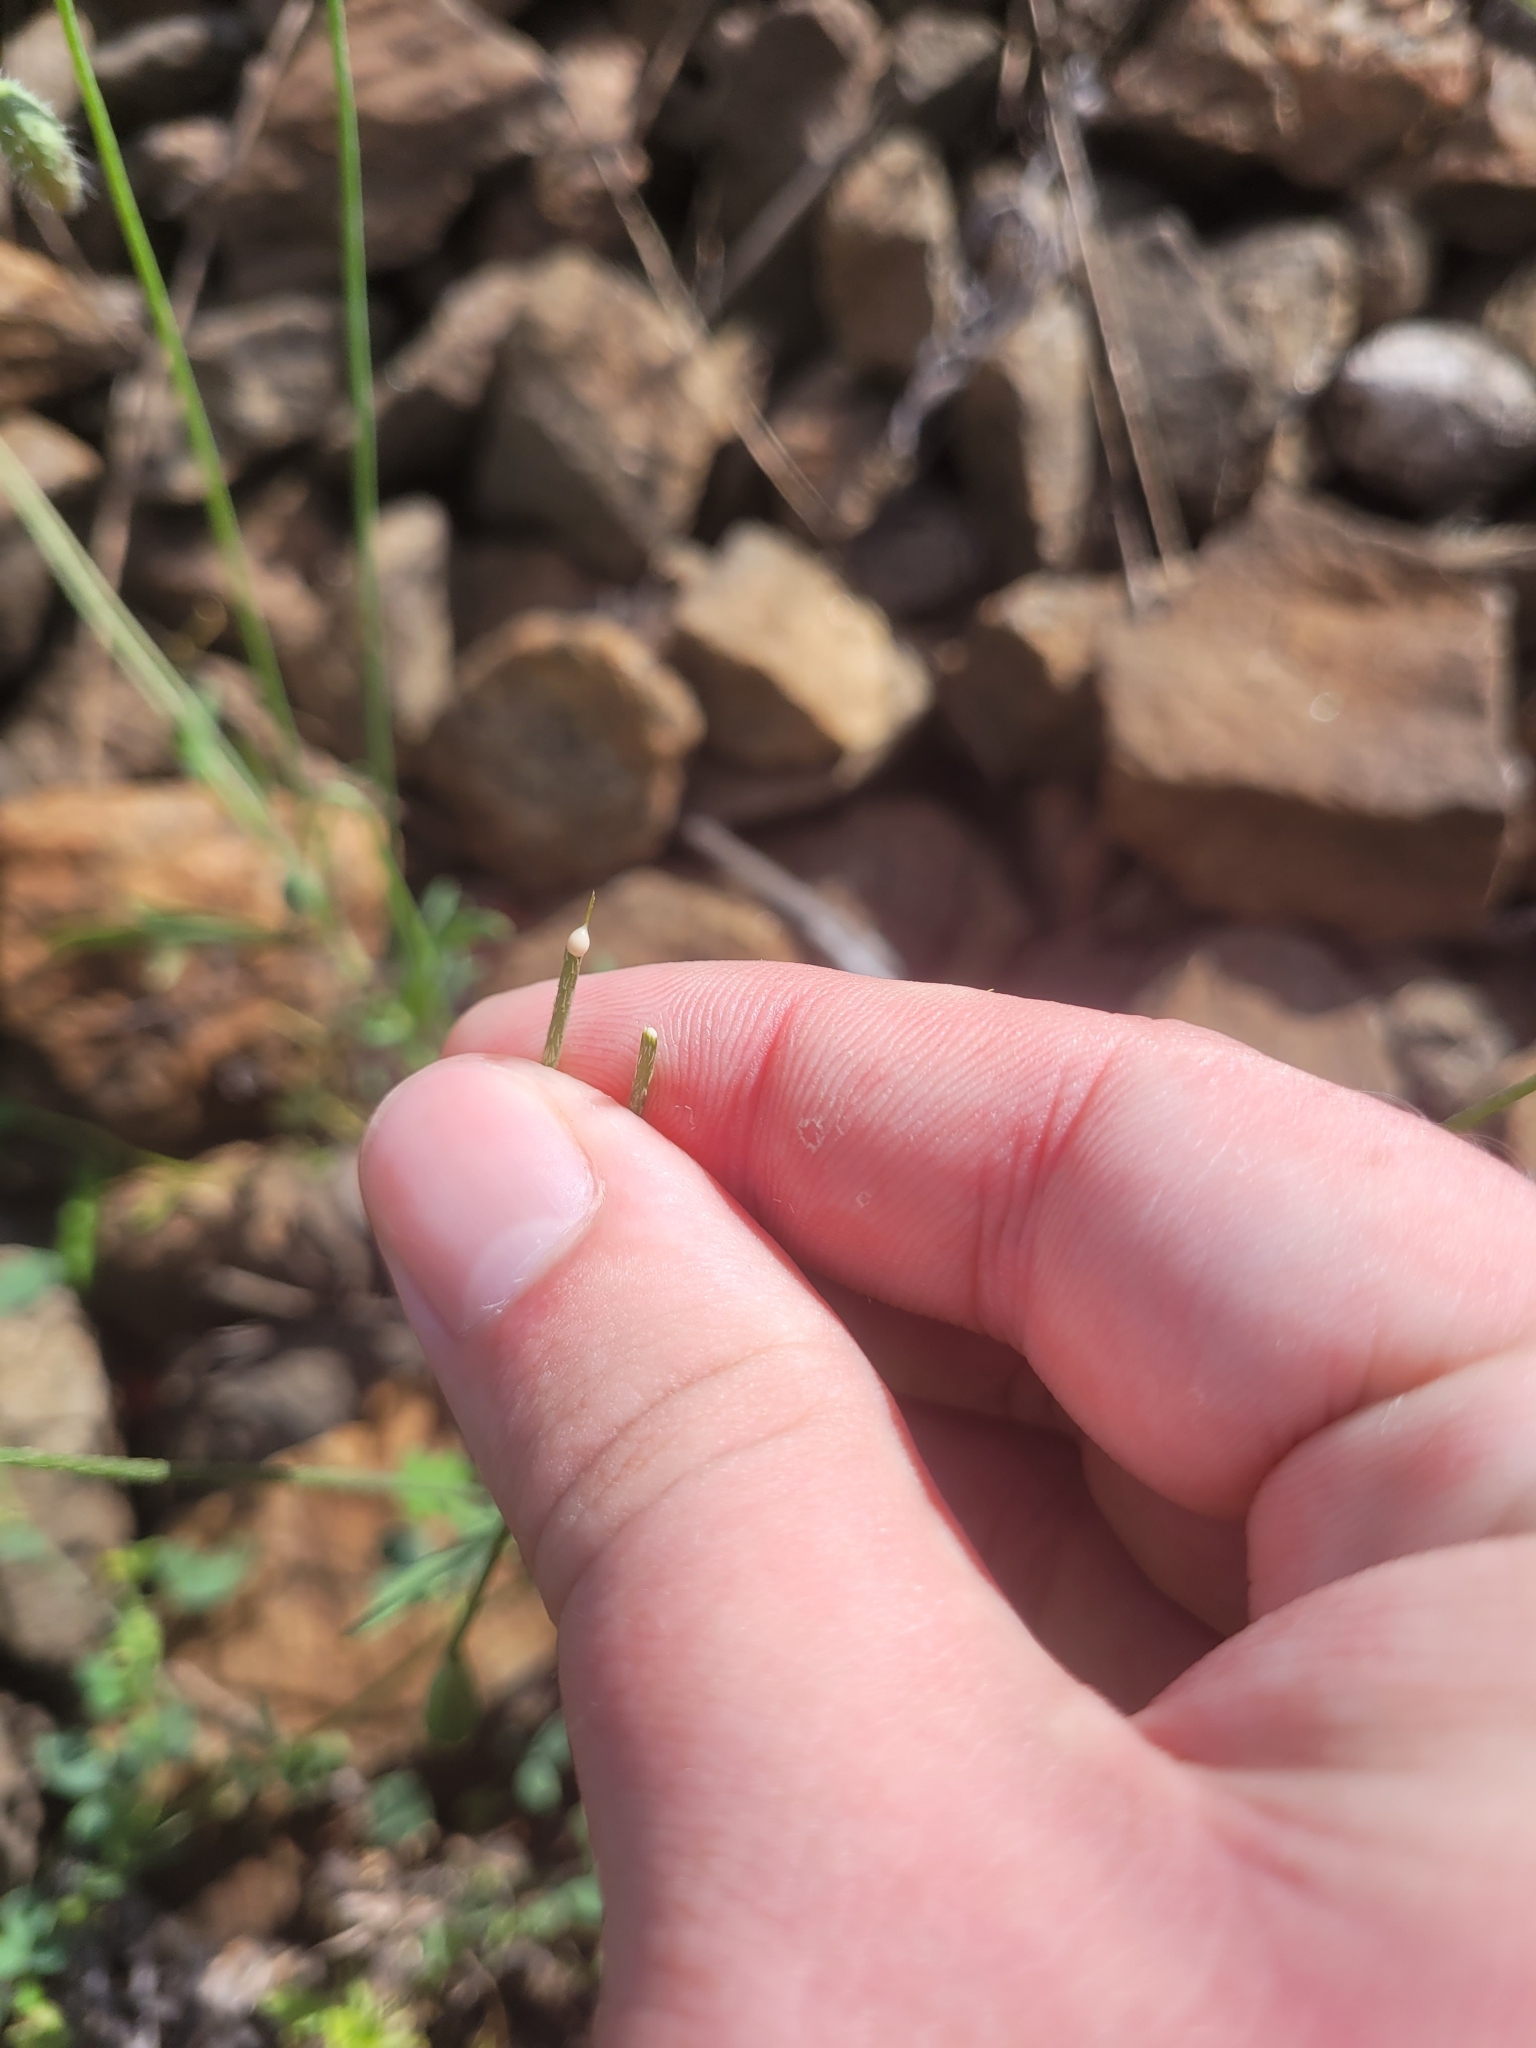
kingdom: Plantae
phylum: Tracheophyta
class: Magnoliopsida
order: Ranunculales
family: Papaveraceae
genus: Papaver
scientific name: Papaver dubium
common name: Long-headed poppy
